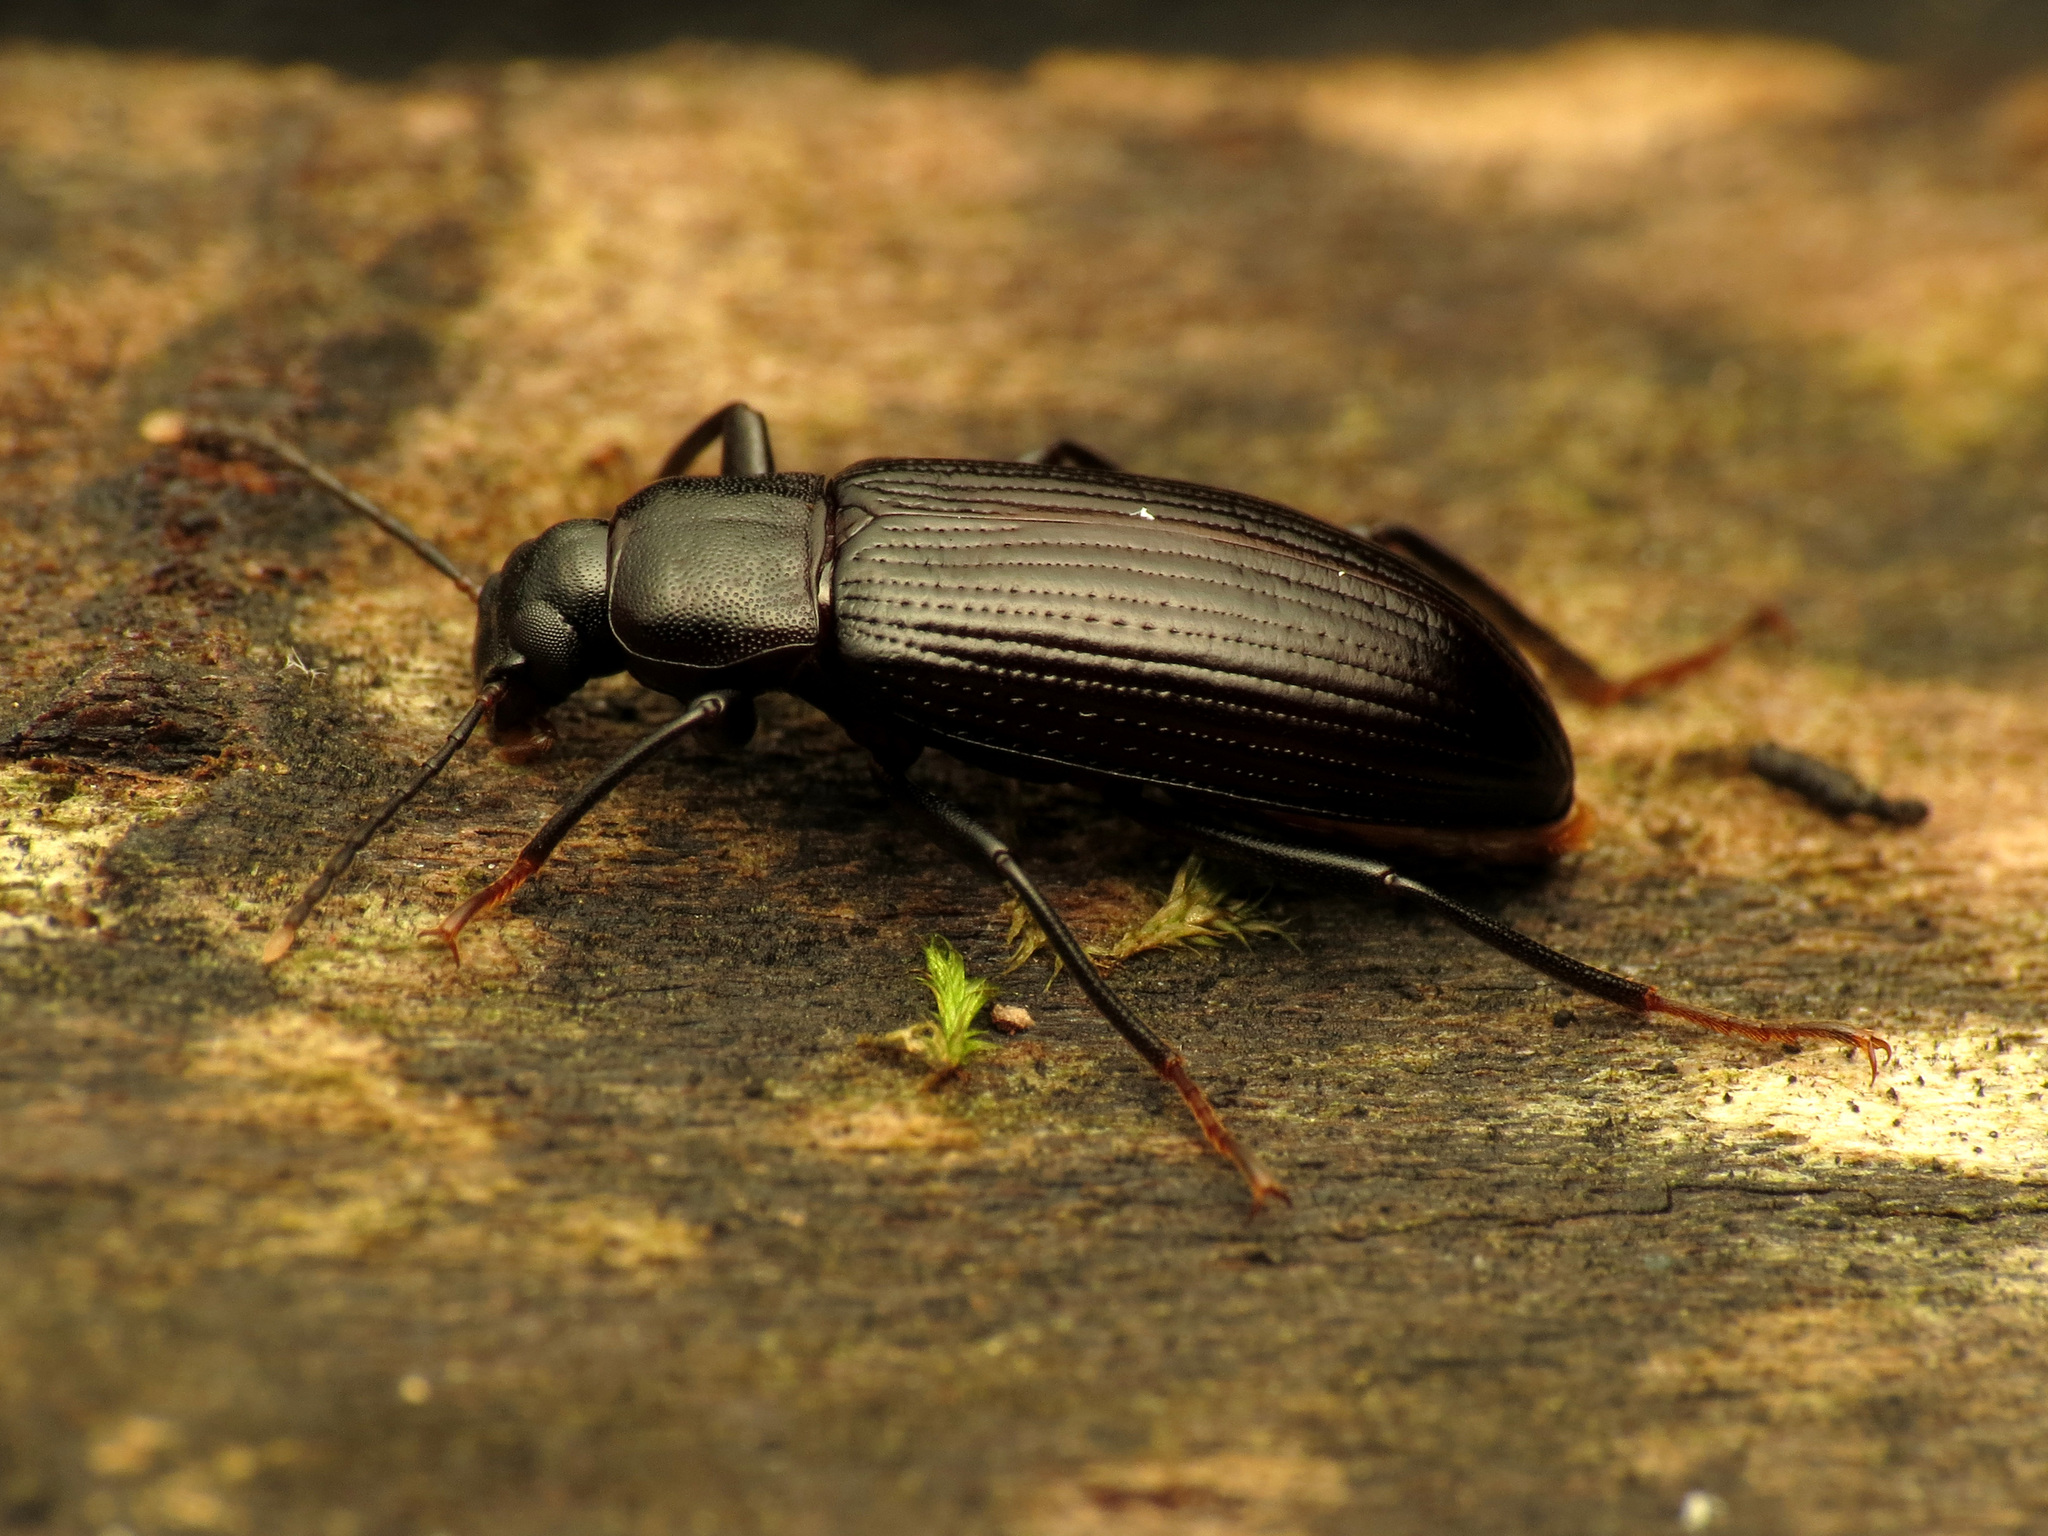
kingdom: Animalia
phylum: Arthropoda
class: Insecta
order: Coleoptera
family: Tenebrionidae
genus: Strongylium
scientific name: Strongylium terminatum
